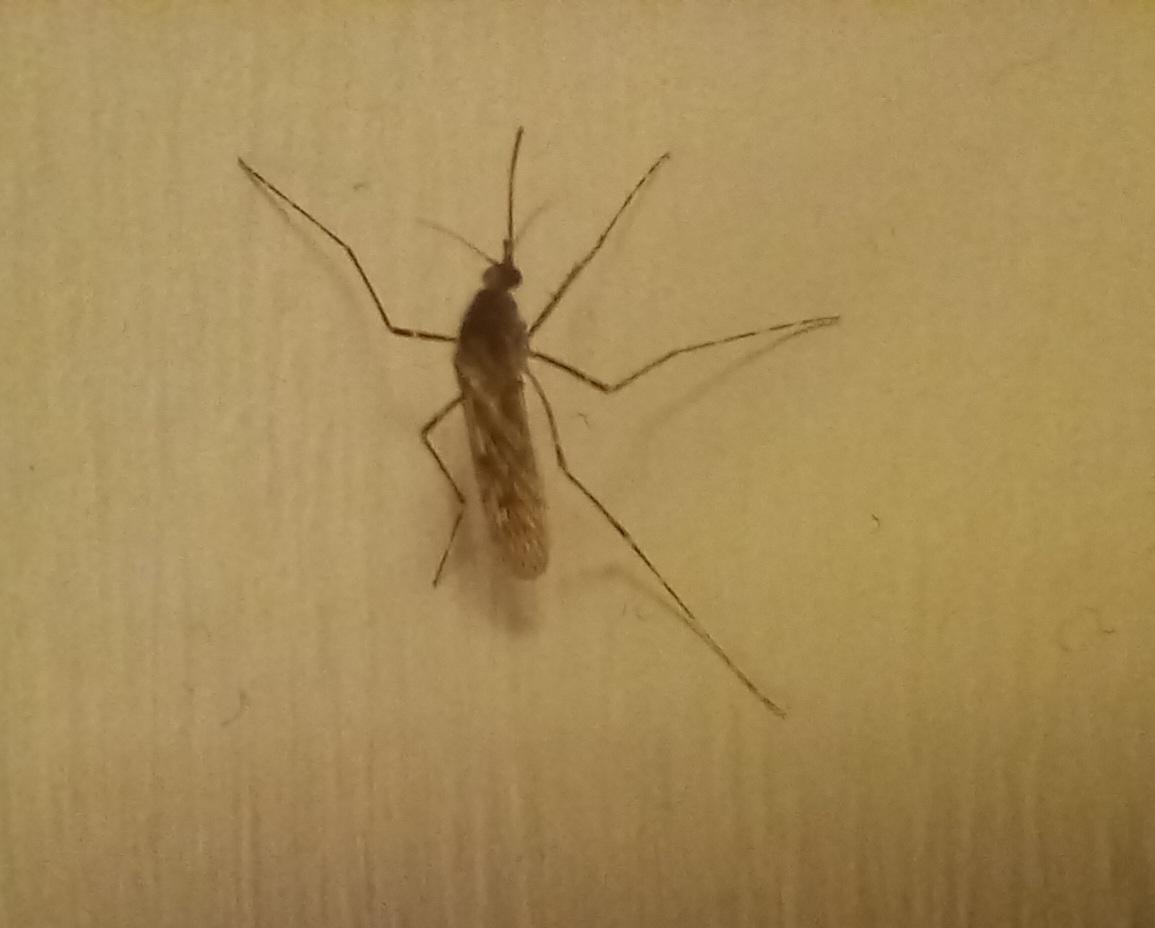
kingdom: Animalia
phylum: Arthropoda
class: Insecta
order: Diptera
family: Culicidae
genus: Culiseta
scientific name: Culiseta annulata
